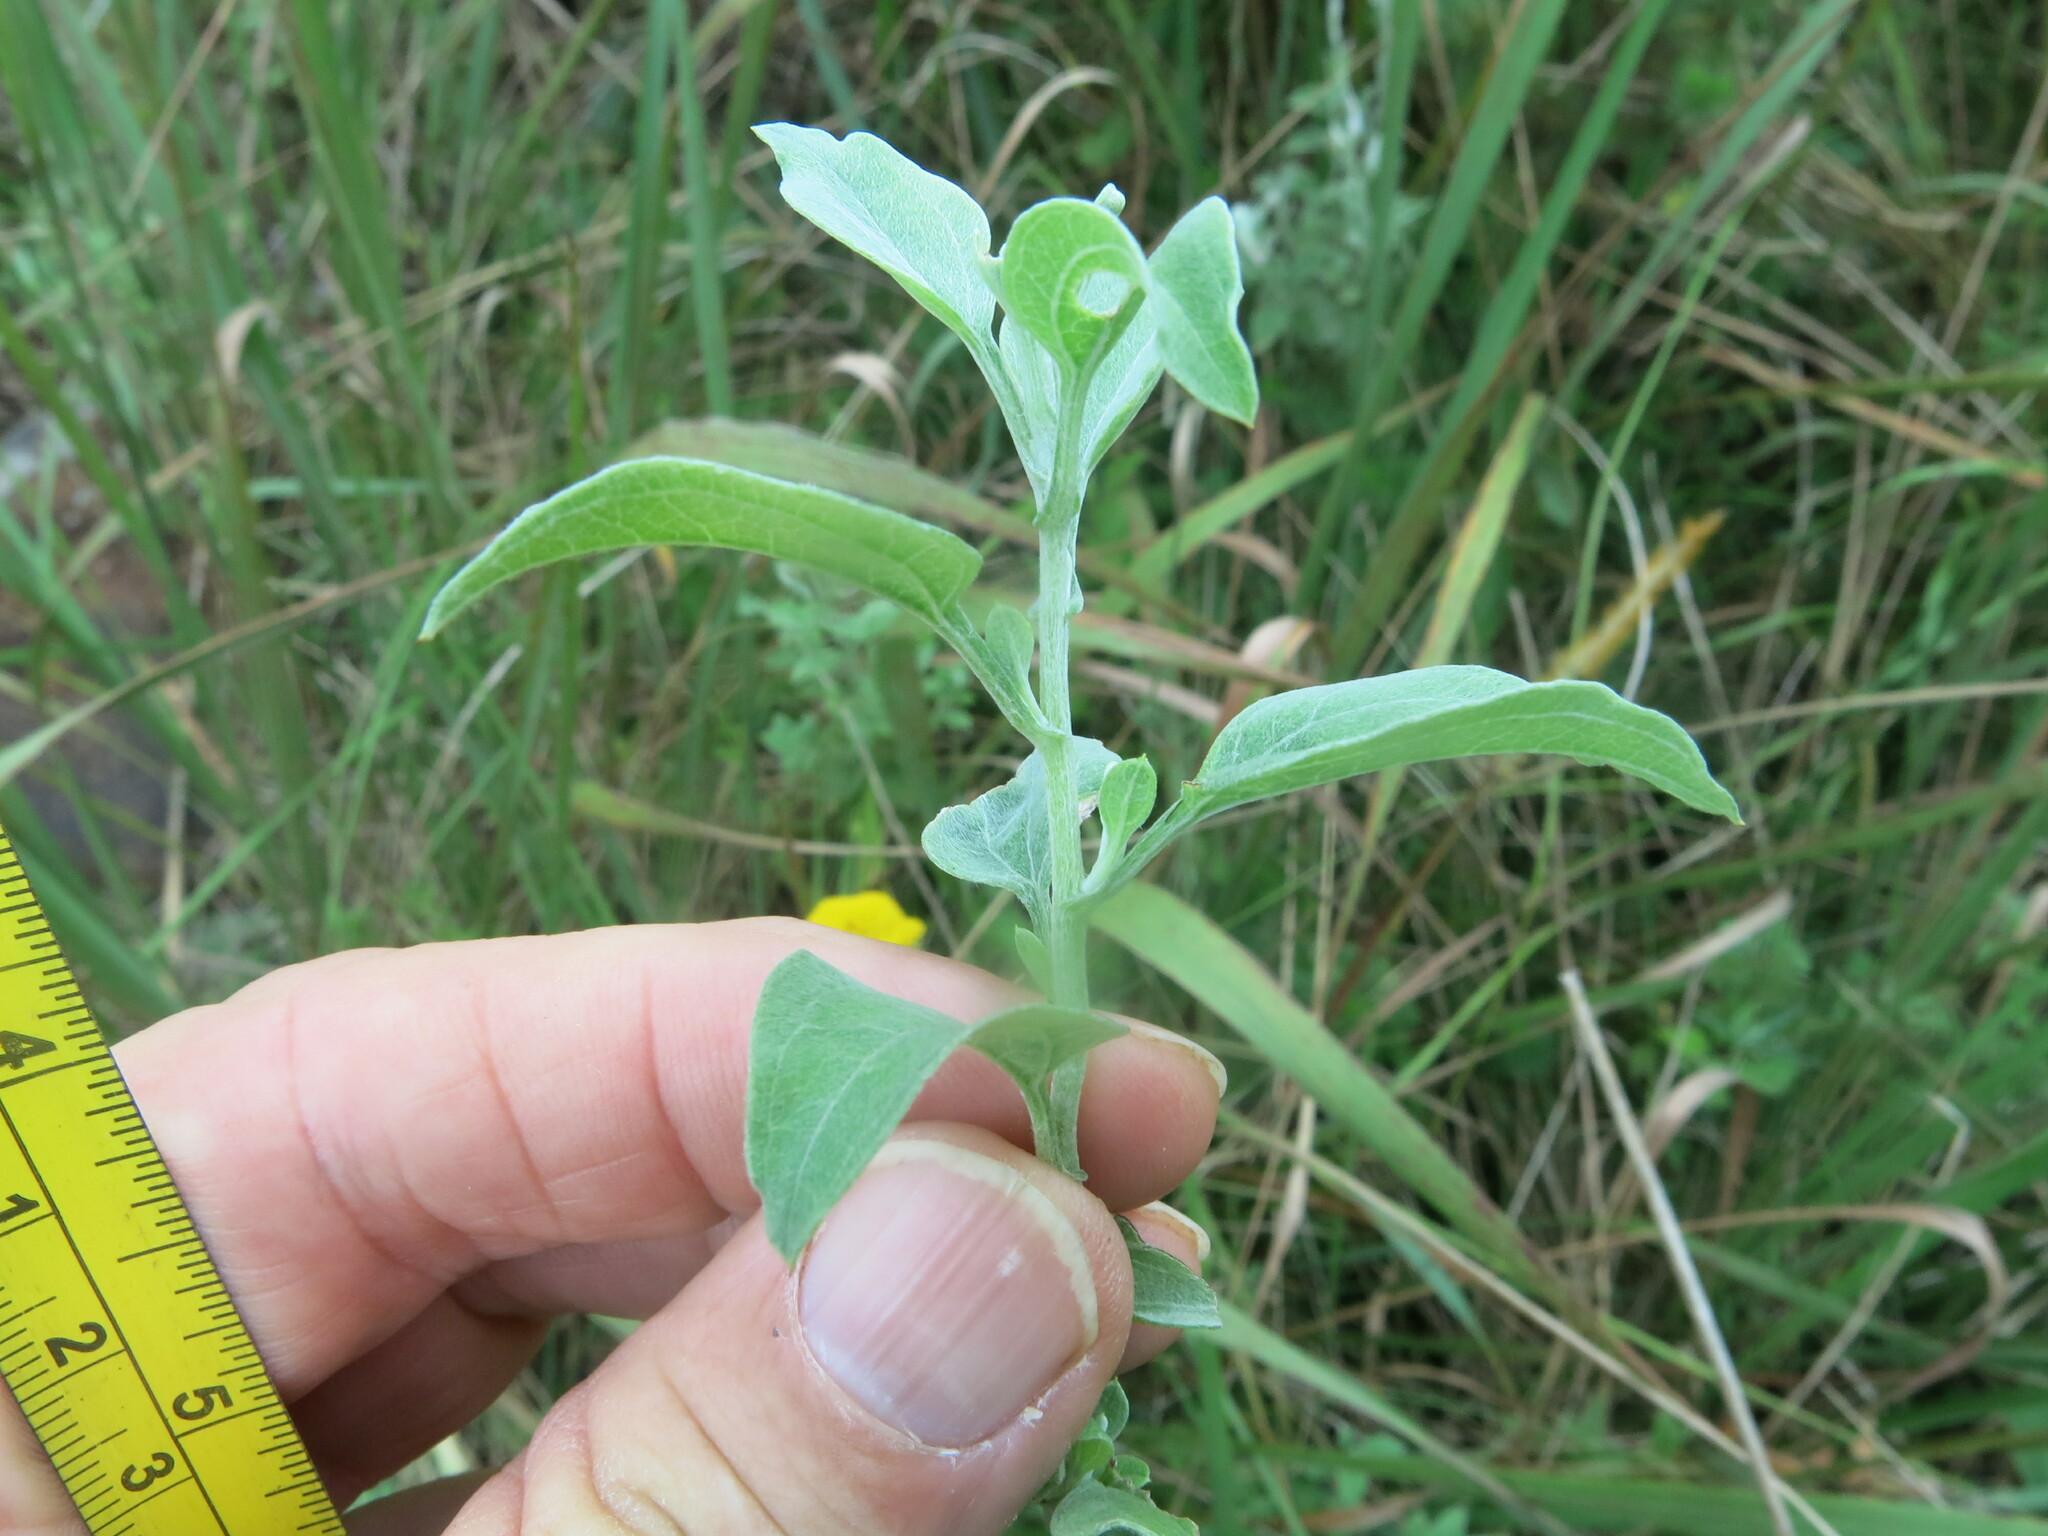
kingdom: Plantae
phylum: Tracheophyta
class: Magnoliopsida
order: Asterales
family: Asteraceae
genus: Helichrysum
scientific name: Helichrysum umbraculigerum
